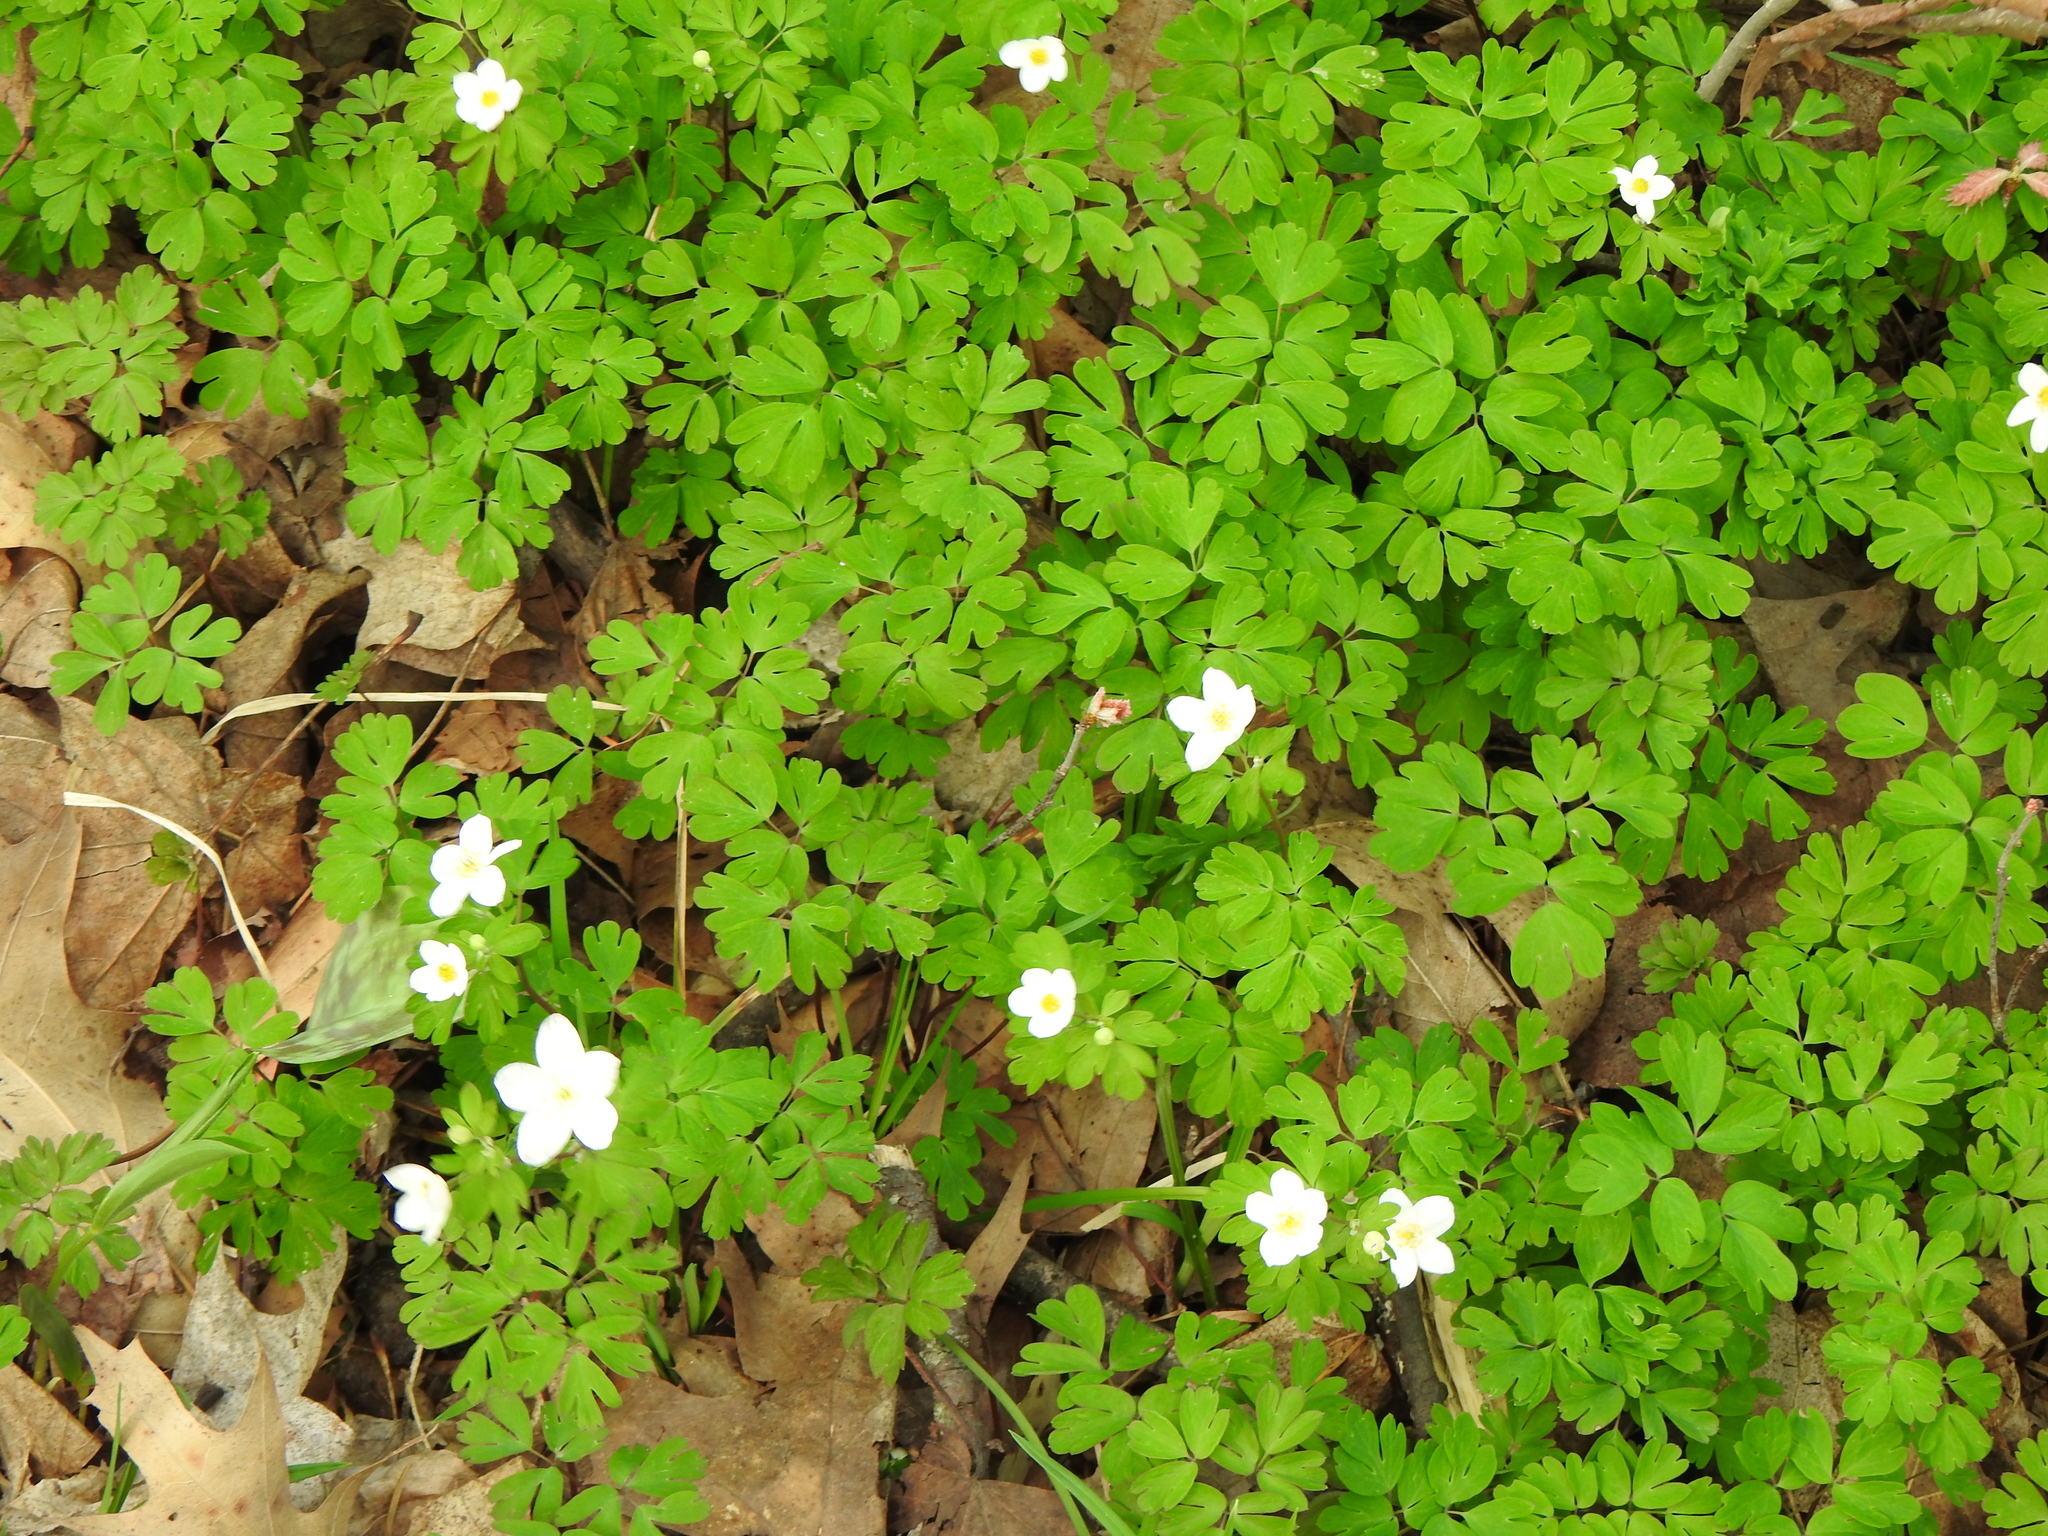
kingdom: Plantae
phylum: Tracheophyta
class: Magnoliopsida
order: Ranunculales
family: Ranunculaceae
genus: Enemion
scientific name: Enemion biternatum
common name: Eastern false rue-anemone
